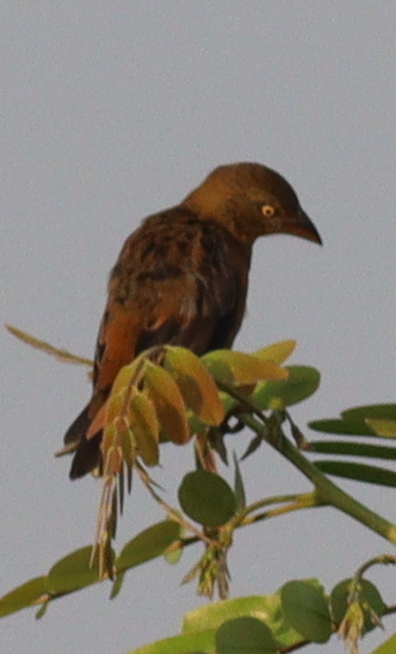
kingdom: Animalia
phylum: Chordata
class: Aves
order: Passeriformes
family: Ploceidae
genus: Ploceus
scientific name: Ploceus castaneofuscus
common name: Chestnut-and-black weaver
